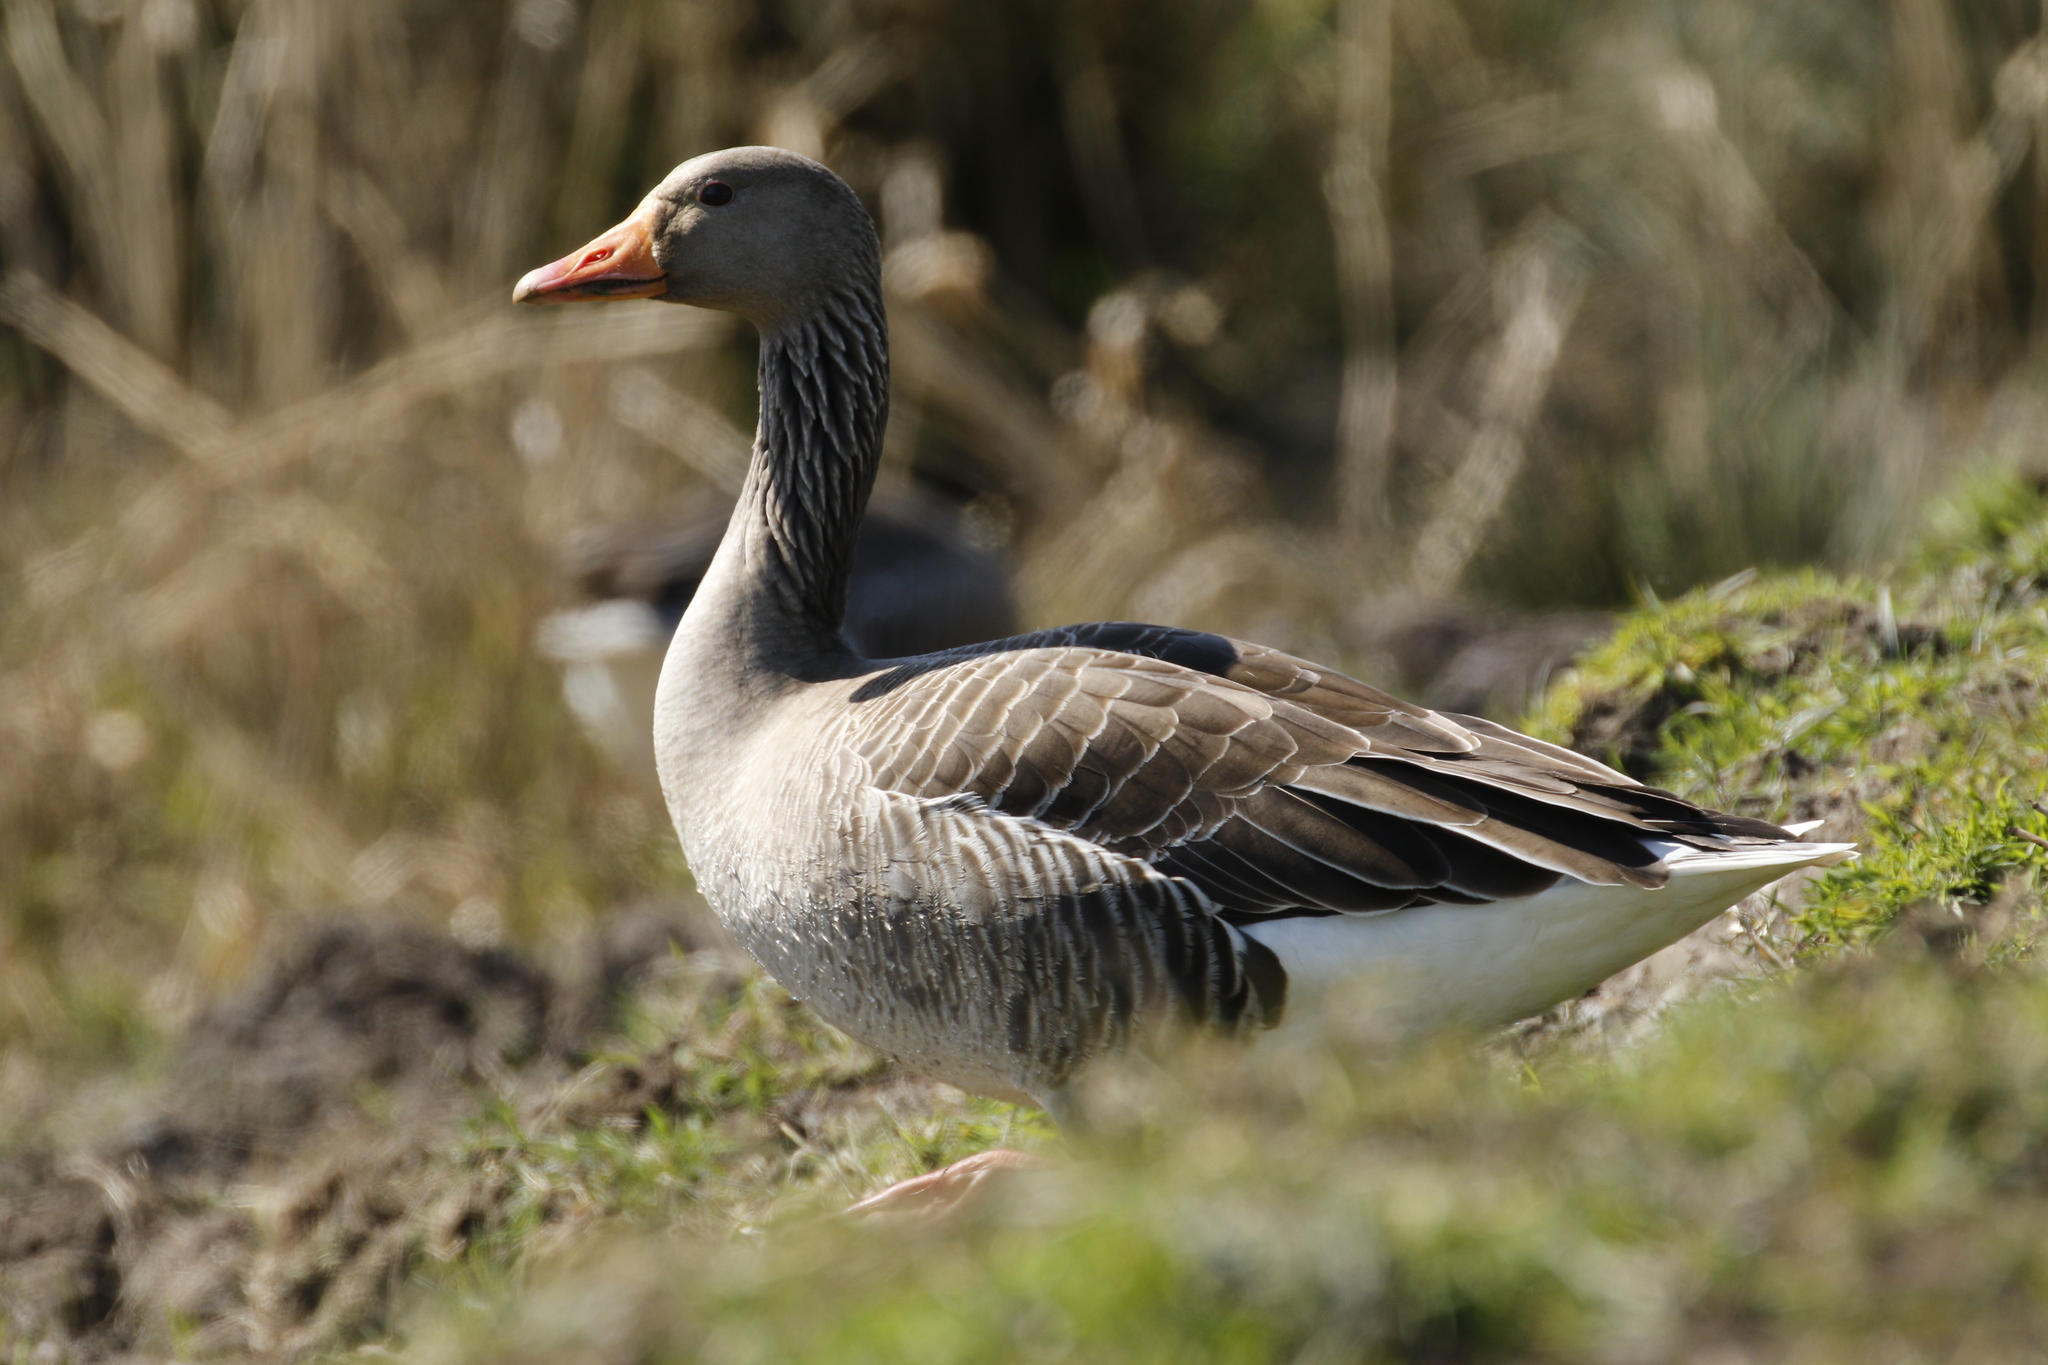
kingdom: Animalia
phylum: Chordata
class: Aves
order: Anseriformes
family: Anatidae
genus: Anser
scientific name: Anser anser
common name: Greylag goose
